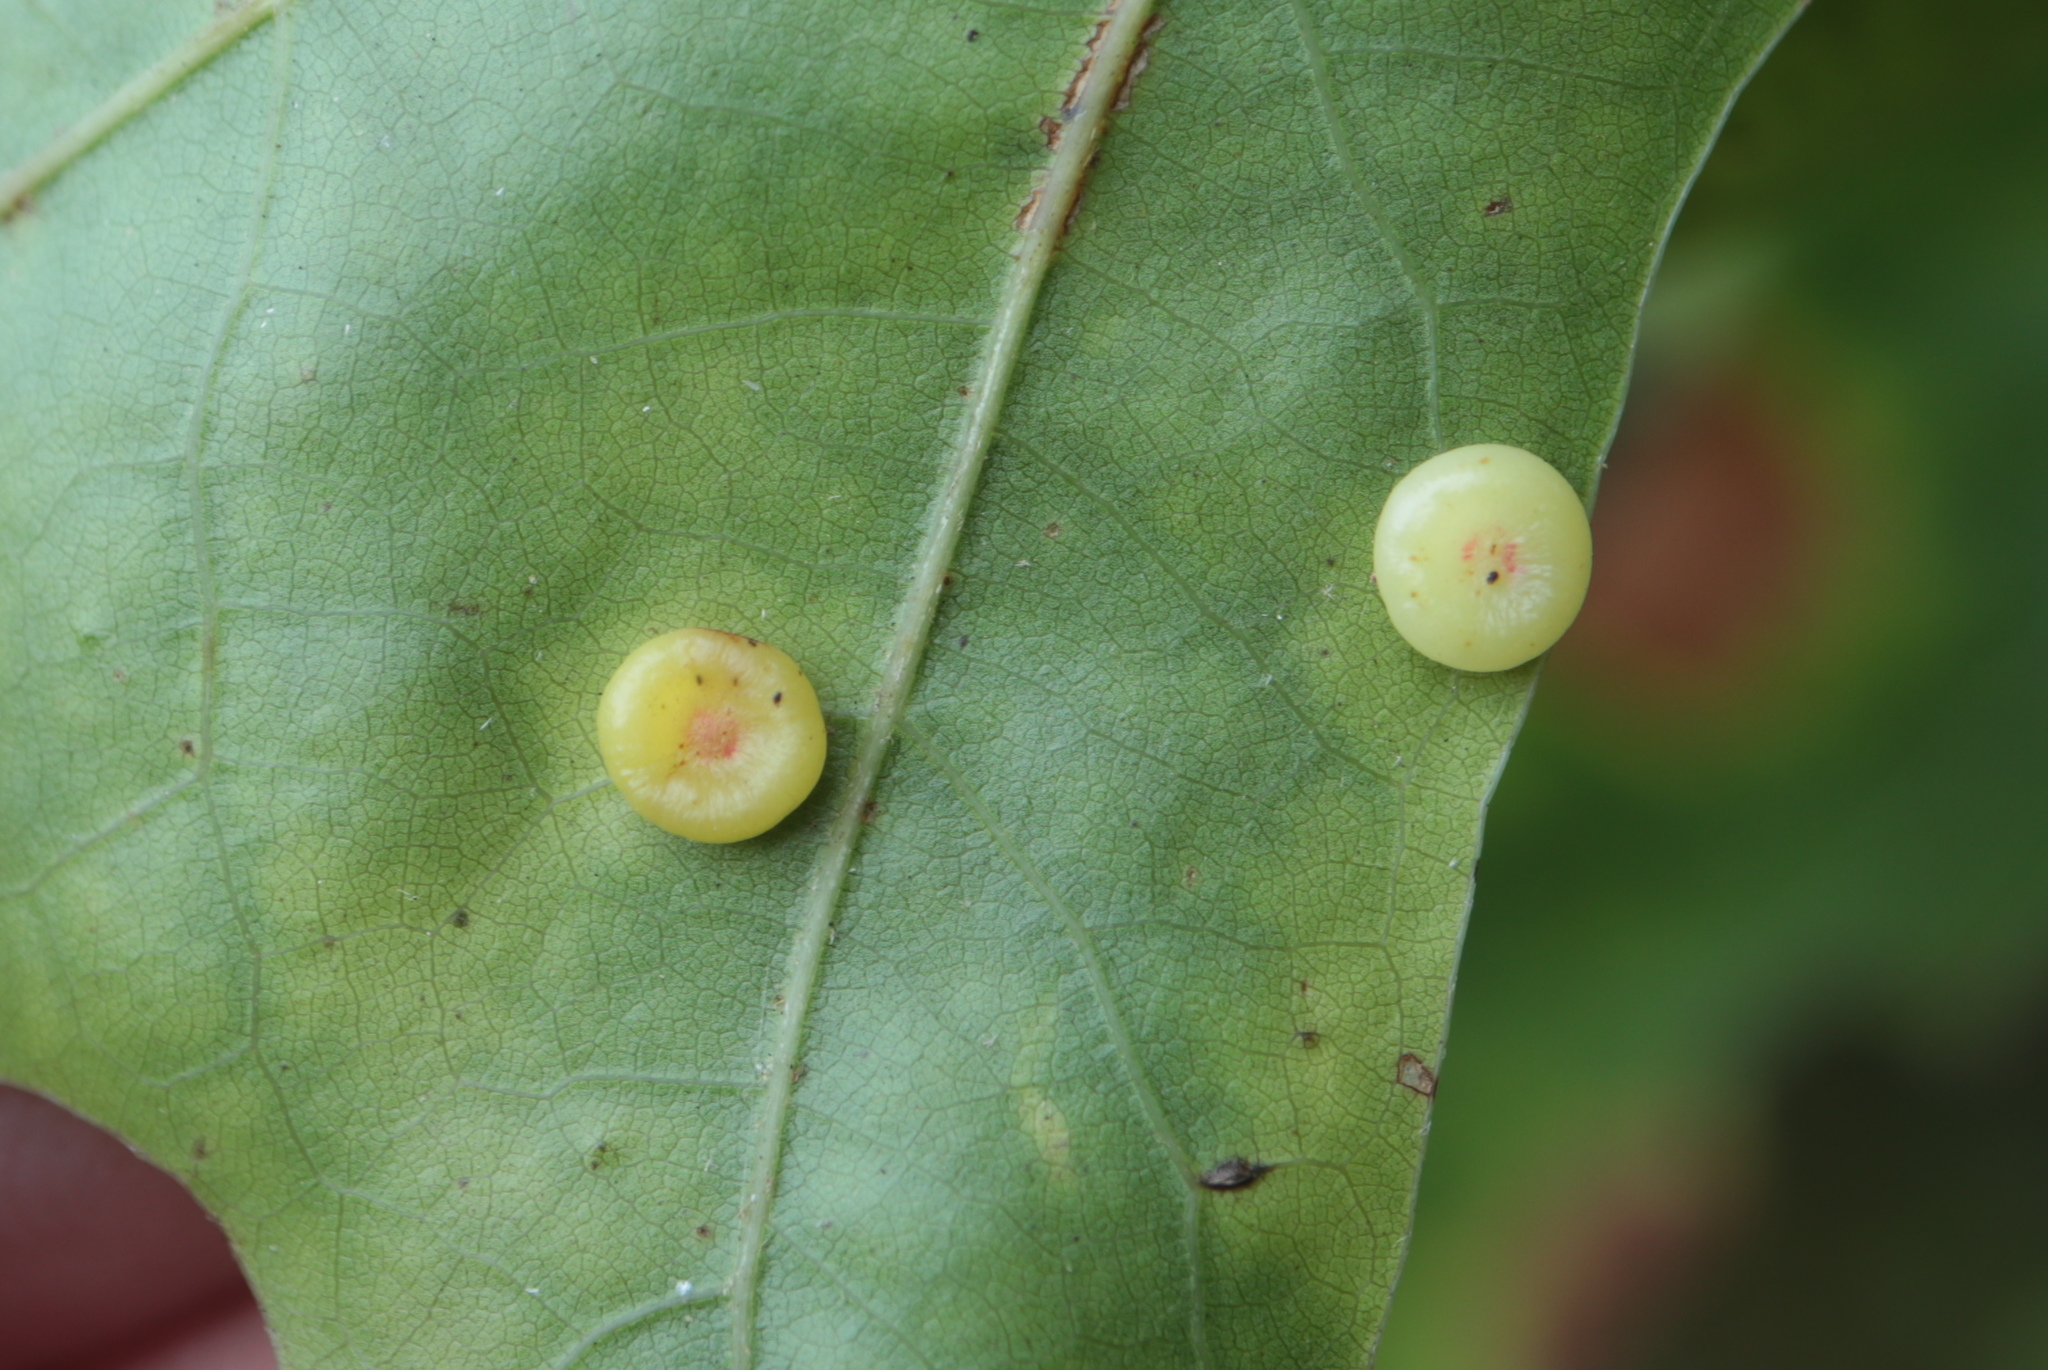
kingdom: Animalia
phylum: Arthropoda
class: Insecta
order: Hymenoptera
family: Cynipidae
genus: Dryocosmus
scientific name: Dryocosmus
